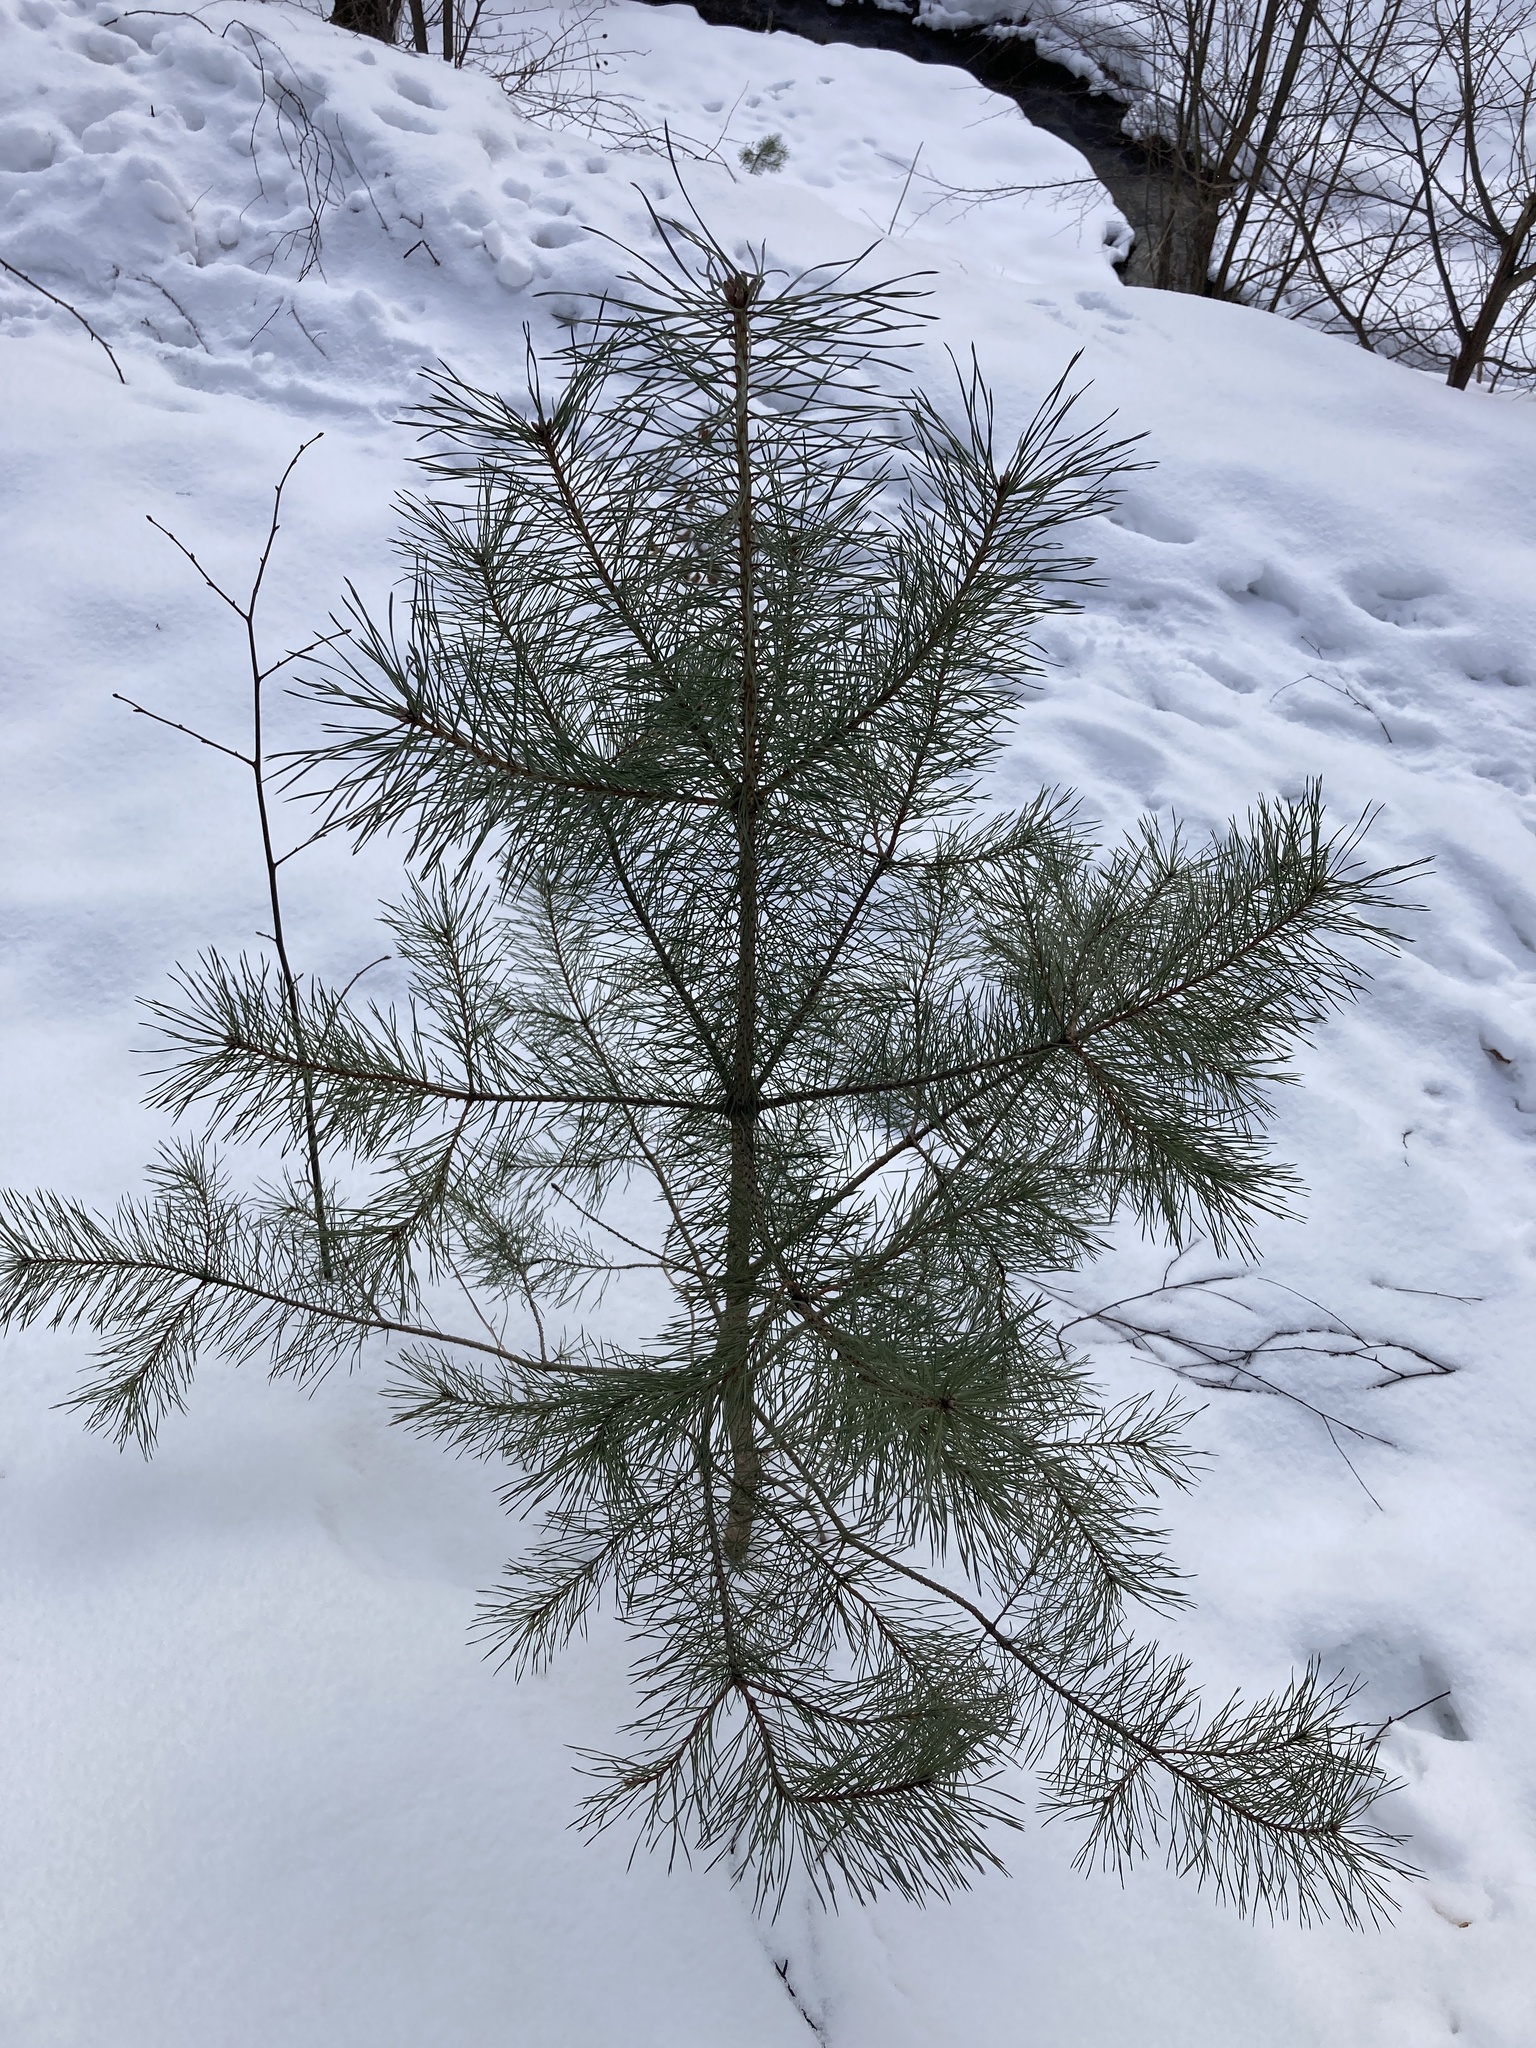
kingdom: Plantae
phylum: Tracheophyta
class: Pinopsida
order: Pinales
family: Pinaceae
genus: Pinus
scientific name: Pinus sylvestris
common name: Scots pine
